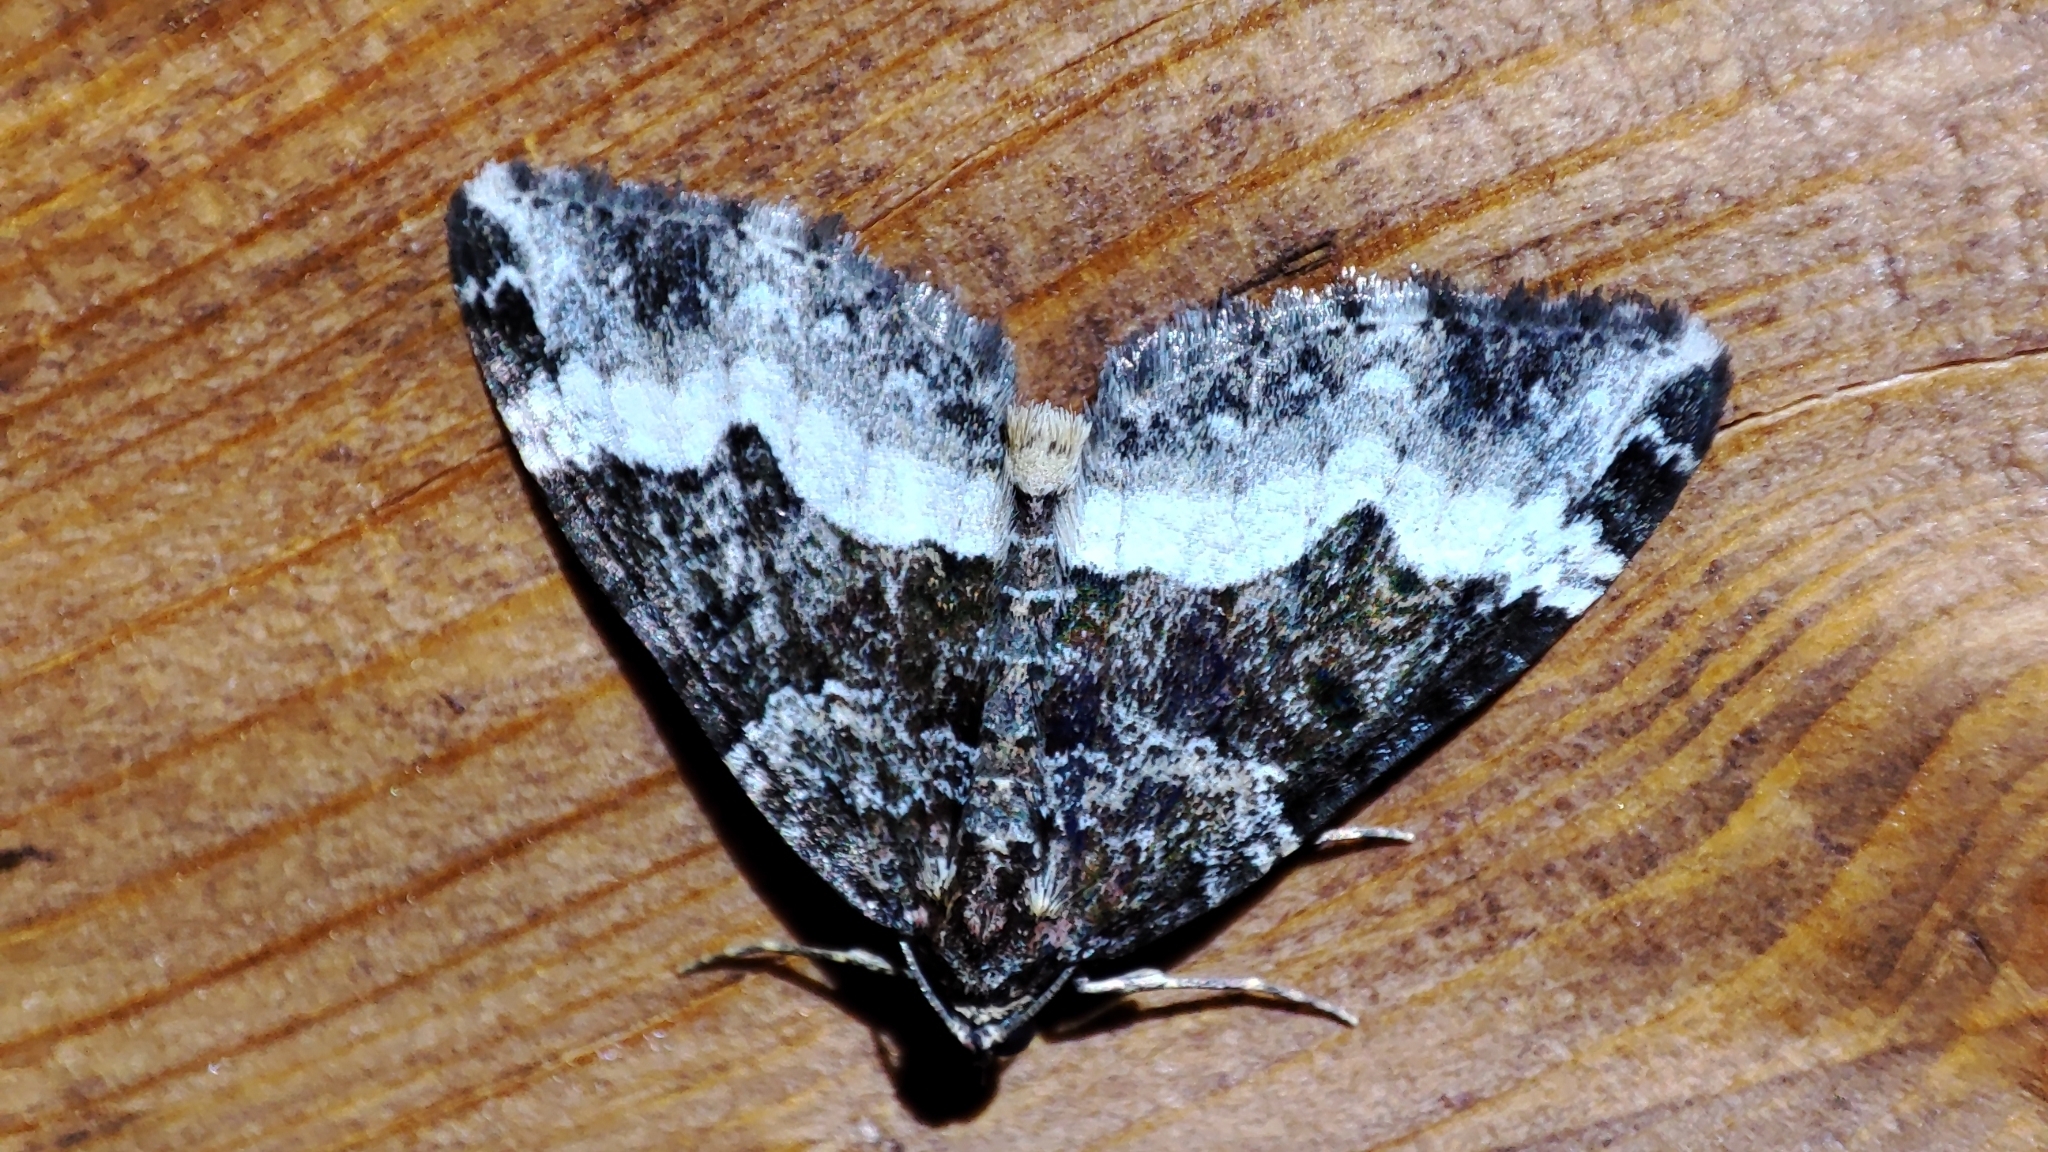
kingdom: Animalia
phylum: Arthropoda
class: Insecta
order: Lepidoptera
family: Geometridae
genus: Euphyia
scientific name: Euphyia unangulata
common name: Sharp-angled carpet
